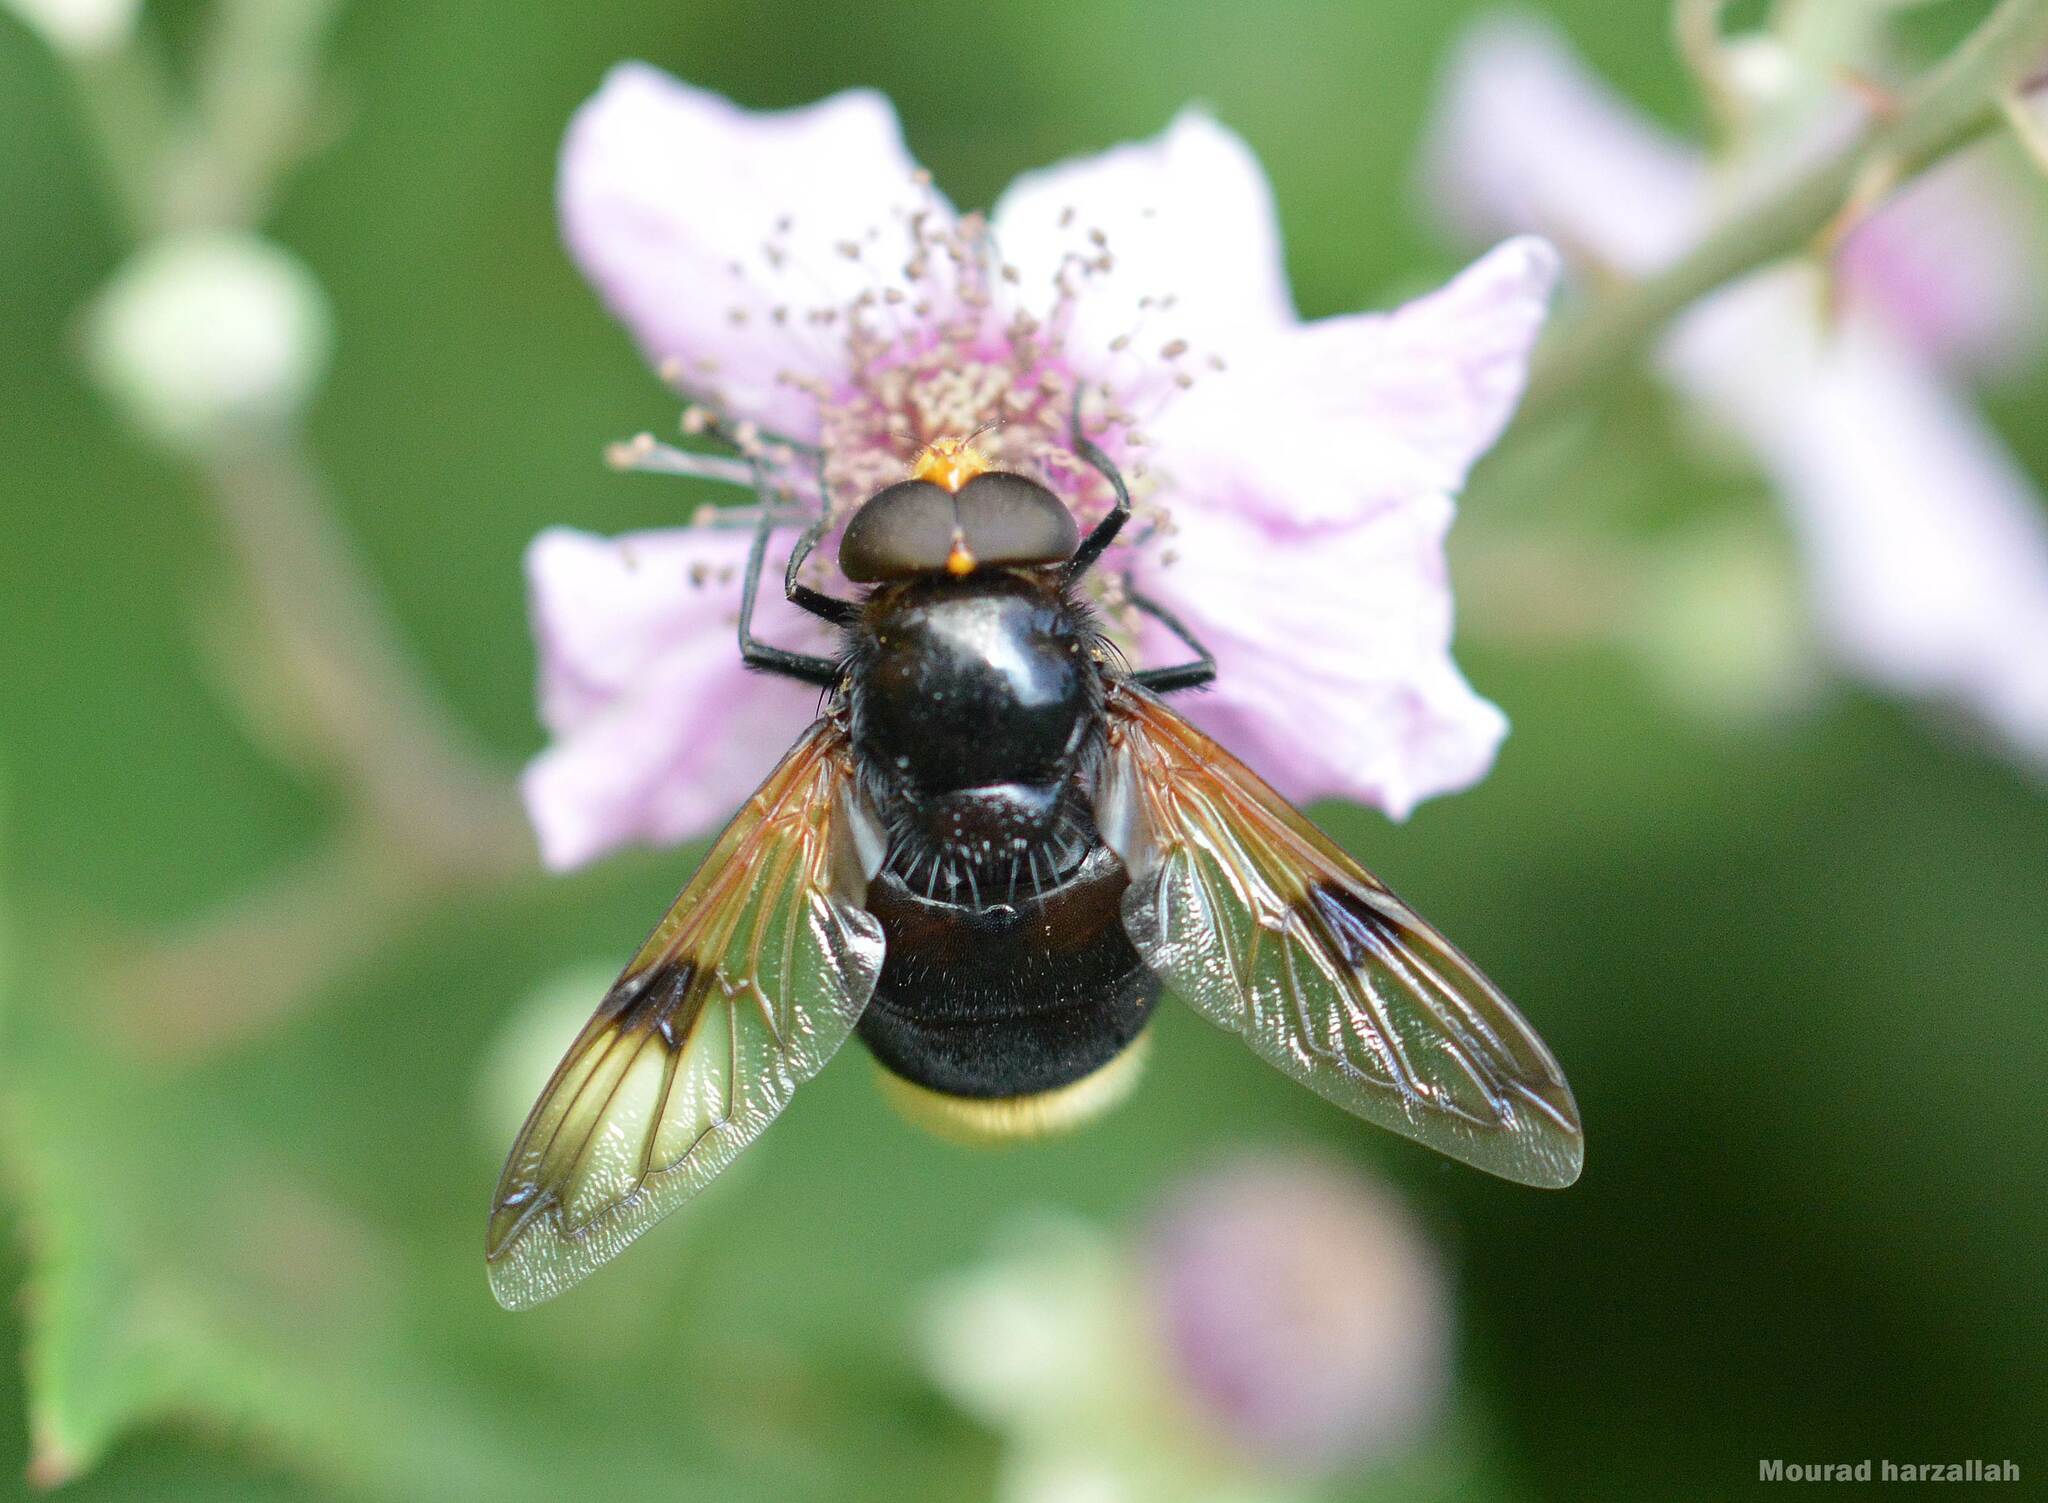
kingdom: Animalia
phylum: Arthropoda
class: Insecta
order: Diptera
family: Syrphidae
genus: Volucella
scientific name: Volucella liquida
